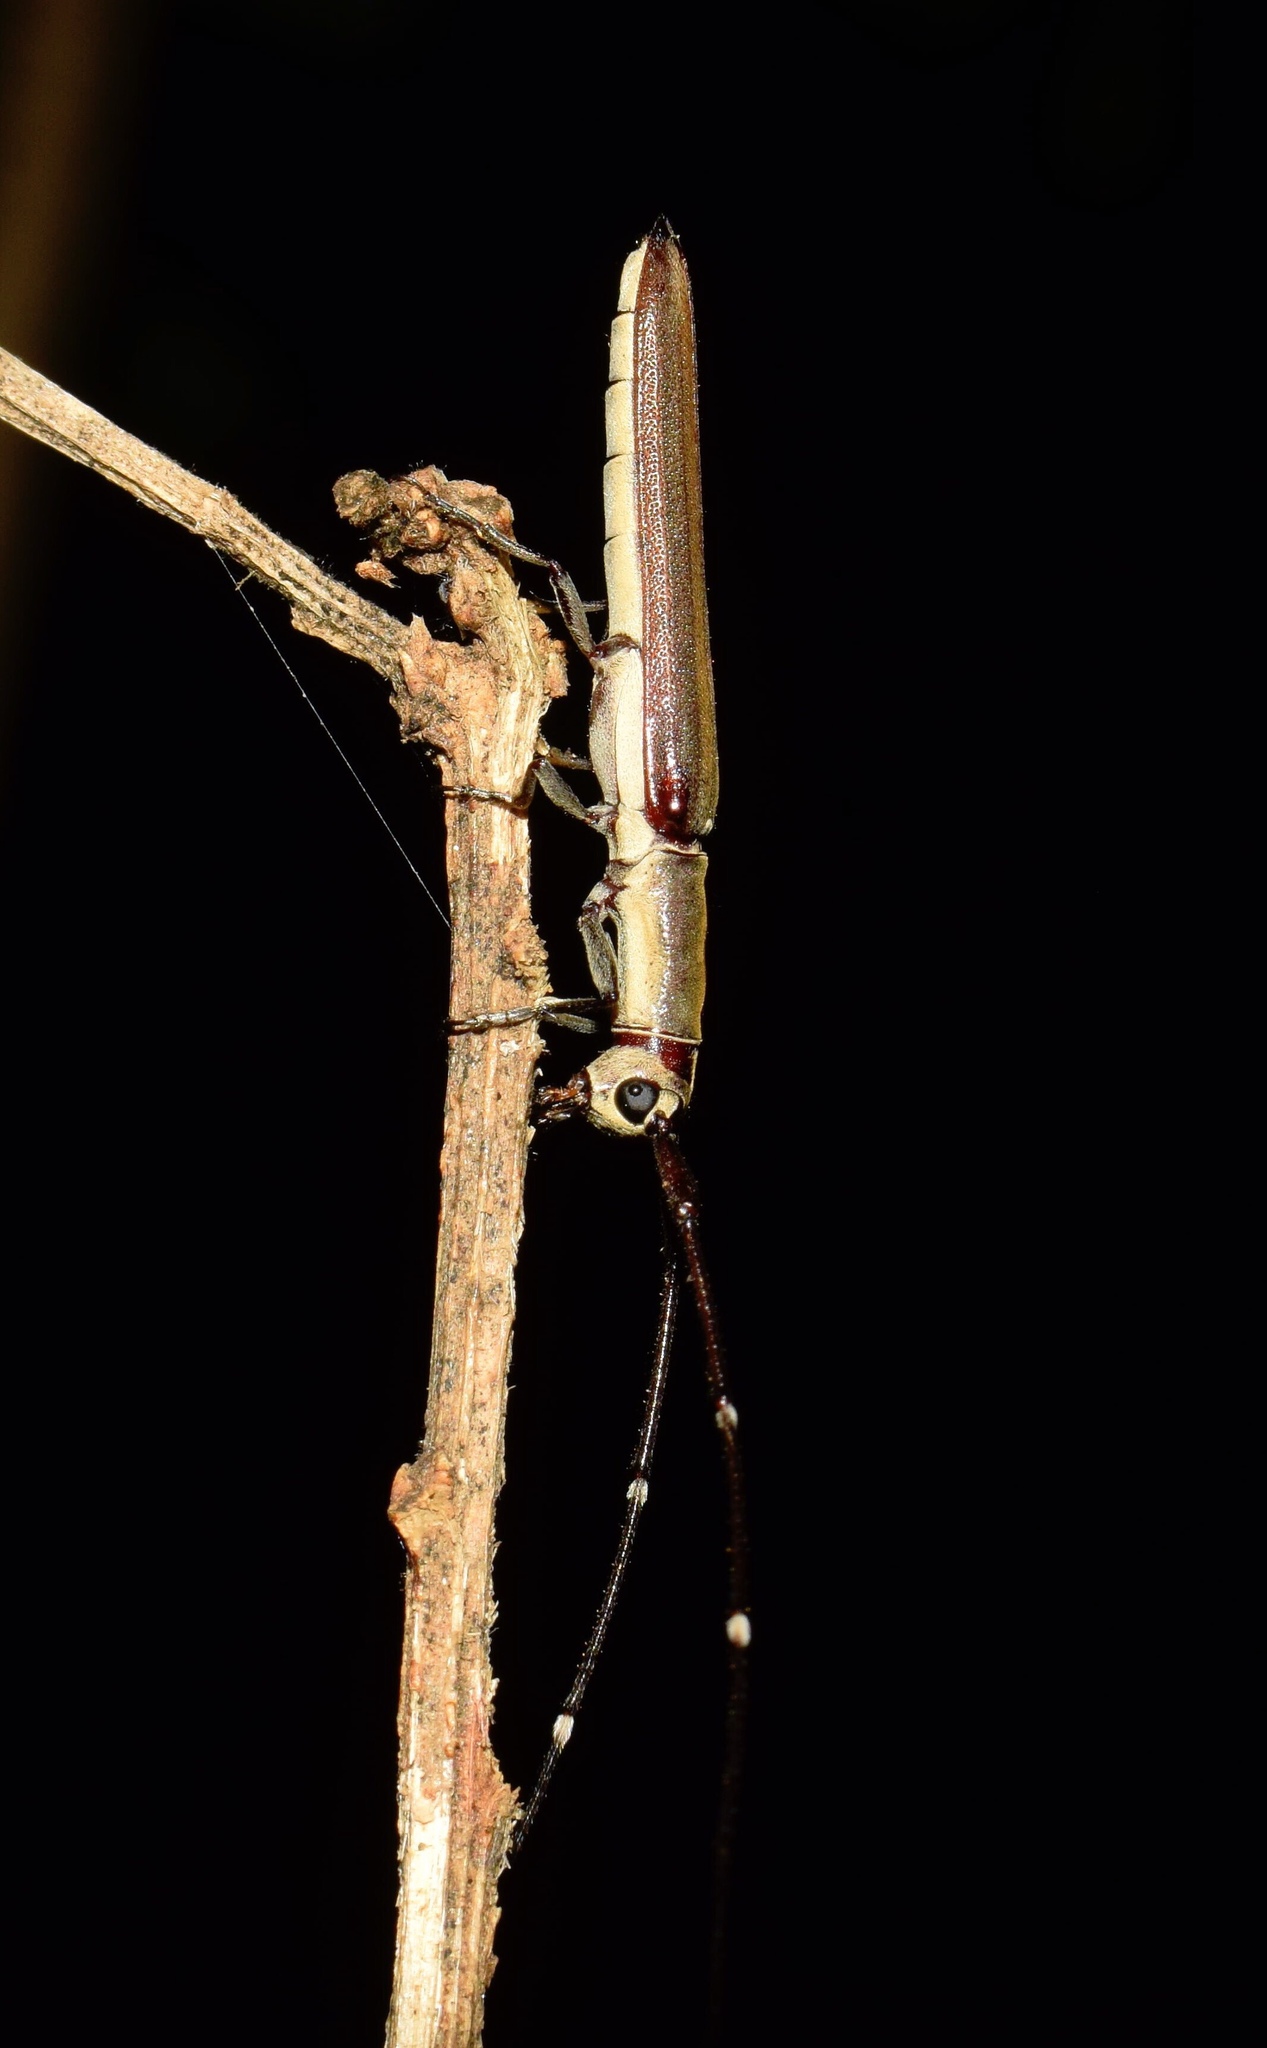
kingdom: Animalia
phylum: Arthropoda
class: Insecta
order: Coleoptera
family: Cerambycidae
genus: Anauxesis
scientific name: Anauxesis cincticornis
